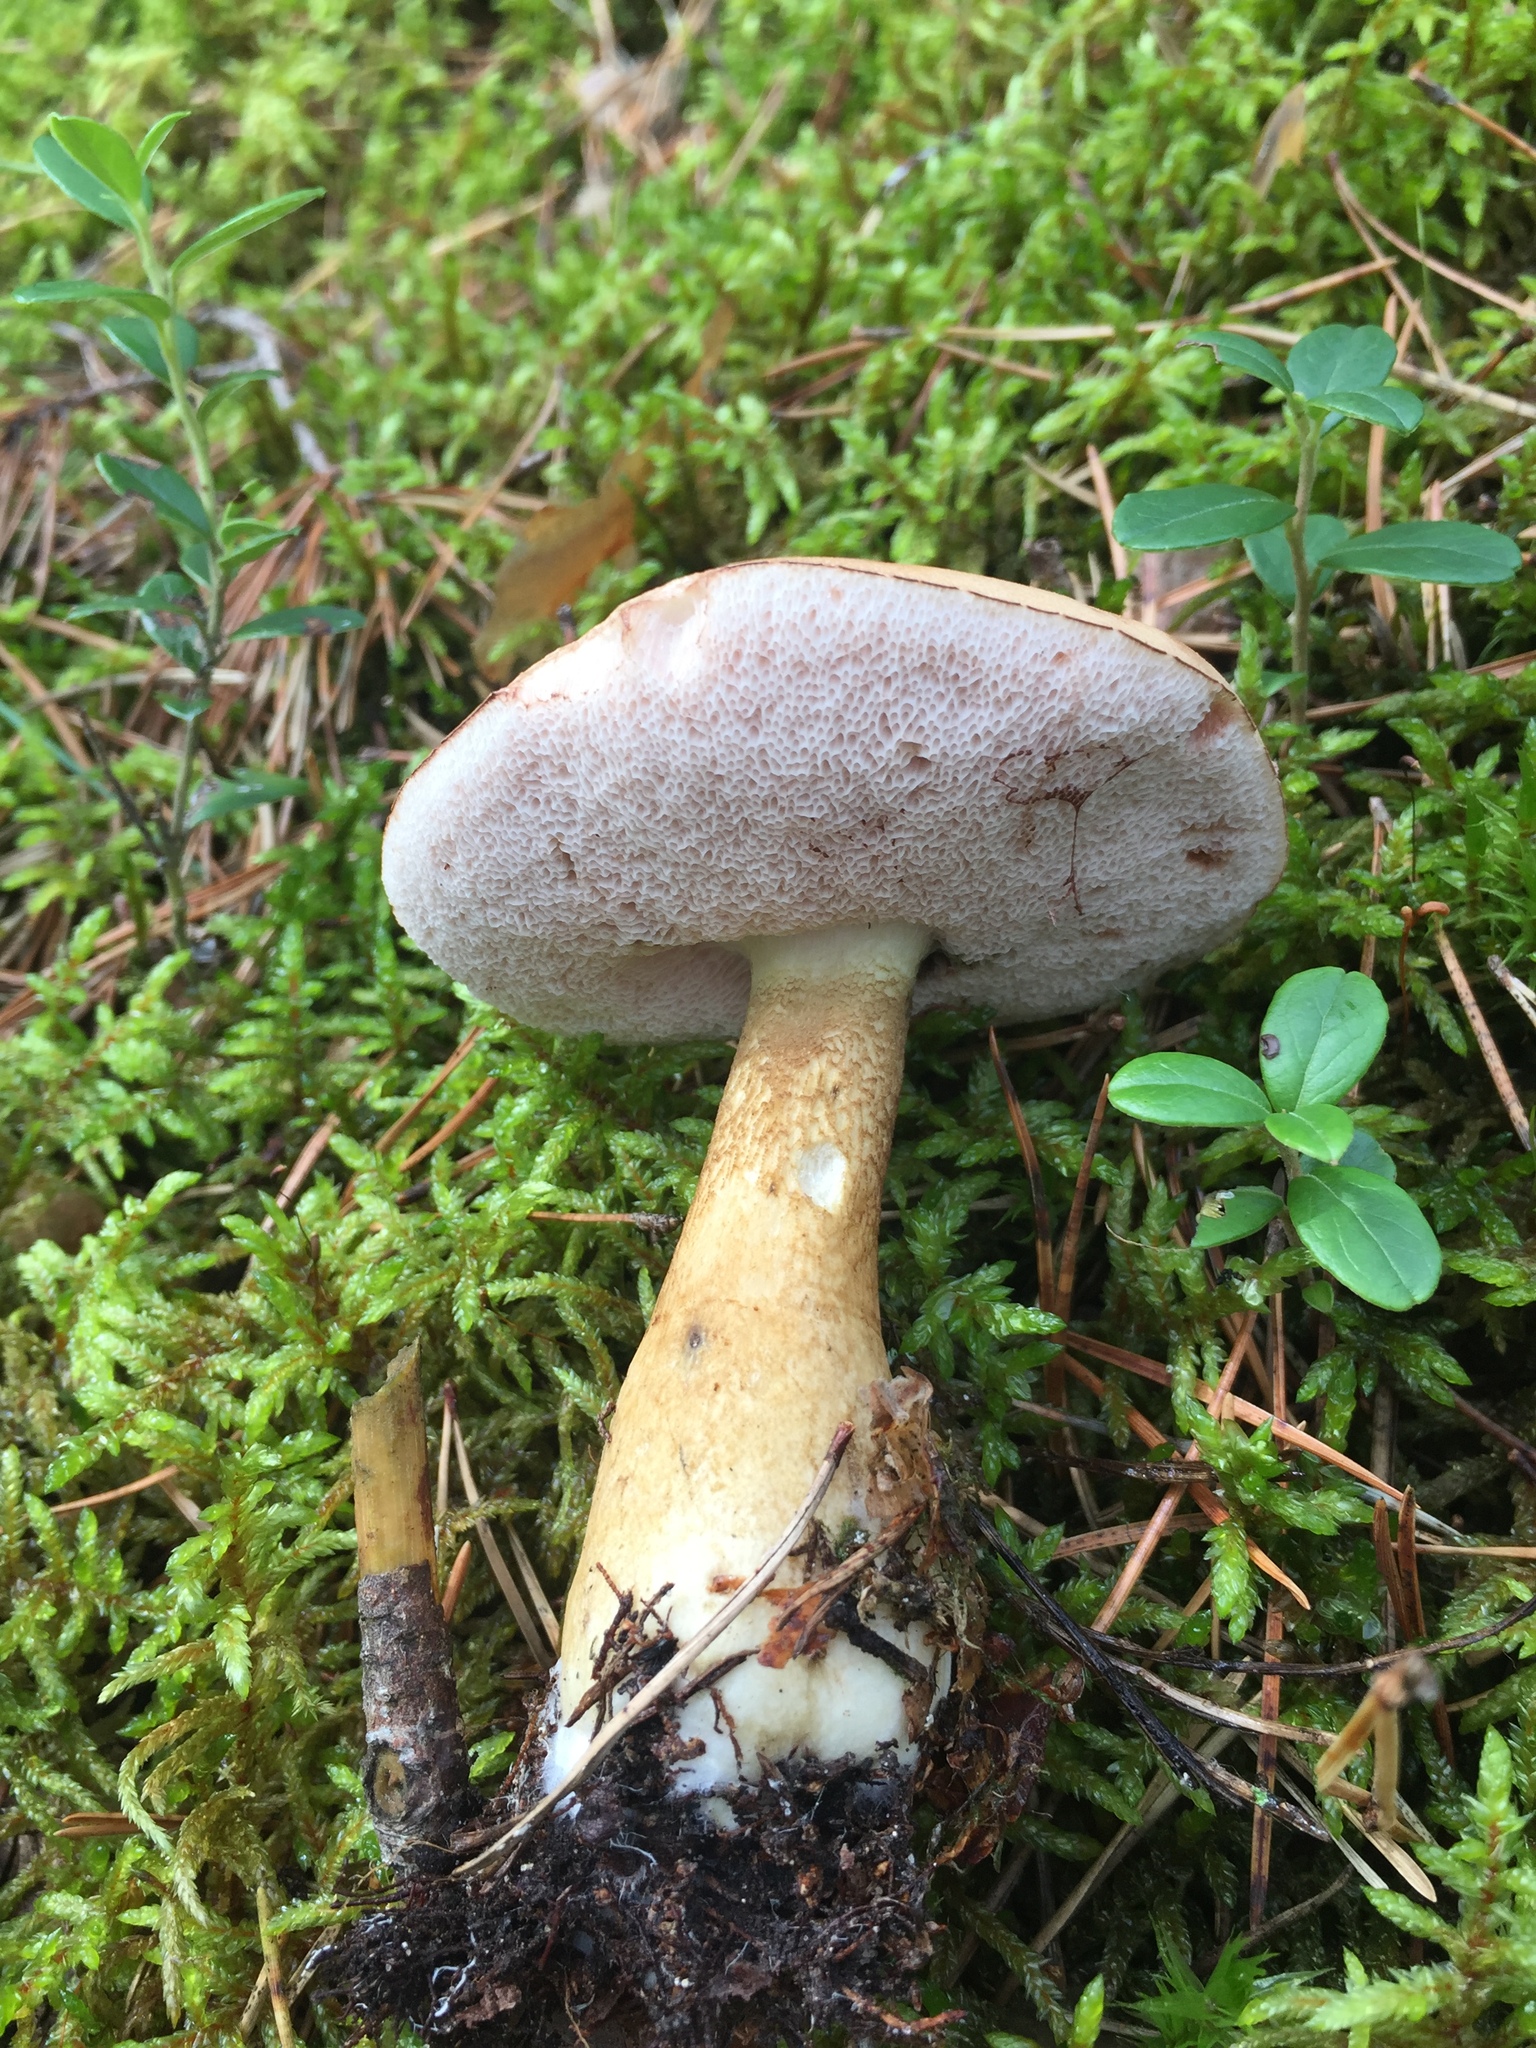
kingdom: Fungi
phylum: Basidiomycota
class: Agaricomycetes
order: Boletales
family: Boletaceae
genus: Tylopilus
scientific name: Tylopilus felleus
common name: Bitter bolete
